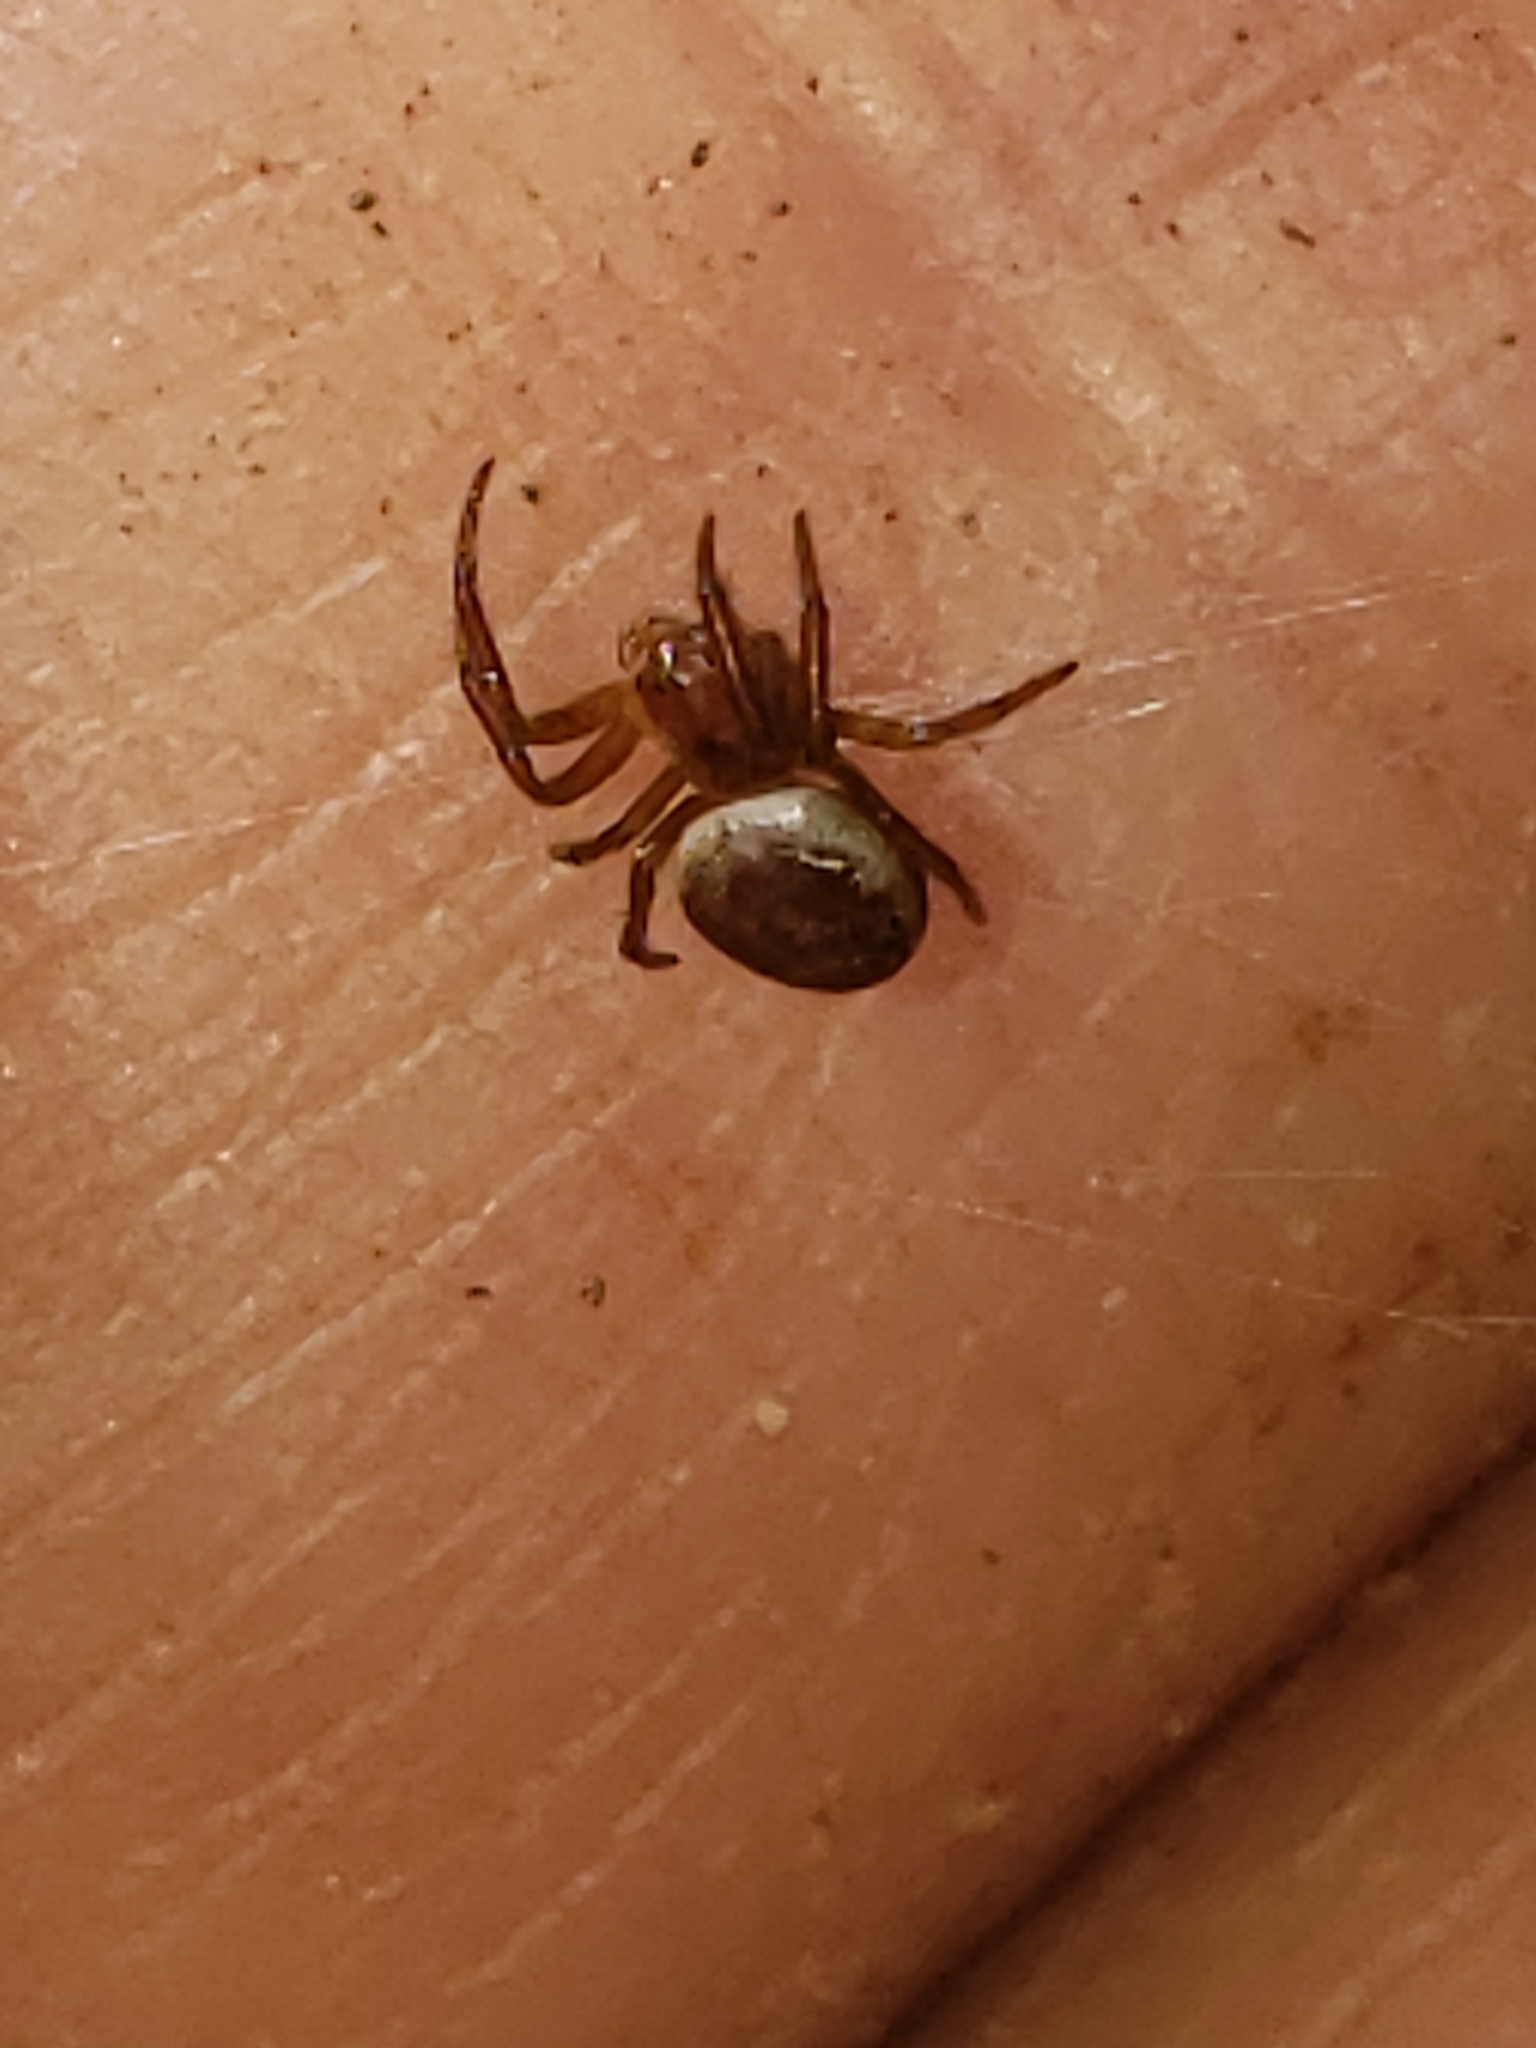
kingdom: Animalia
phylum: Arthropoda
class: Arachnida
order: Araneae
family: Araneidae
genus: Araniella
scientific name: Araniella displicata
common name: Sixspotted orb weaver
